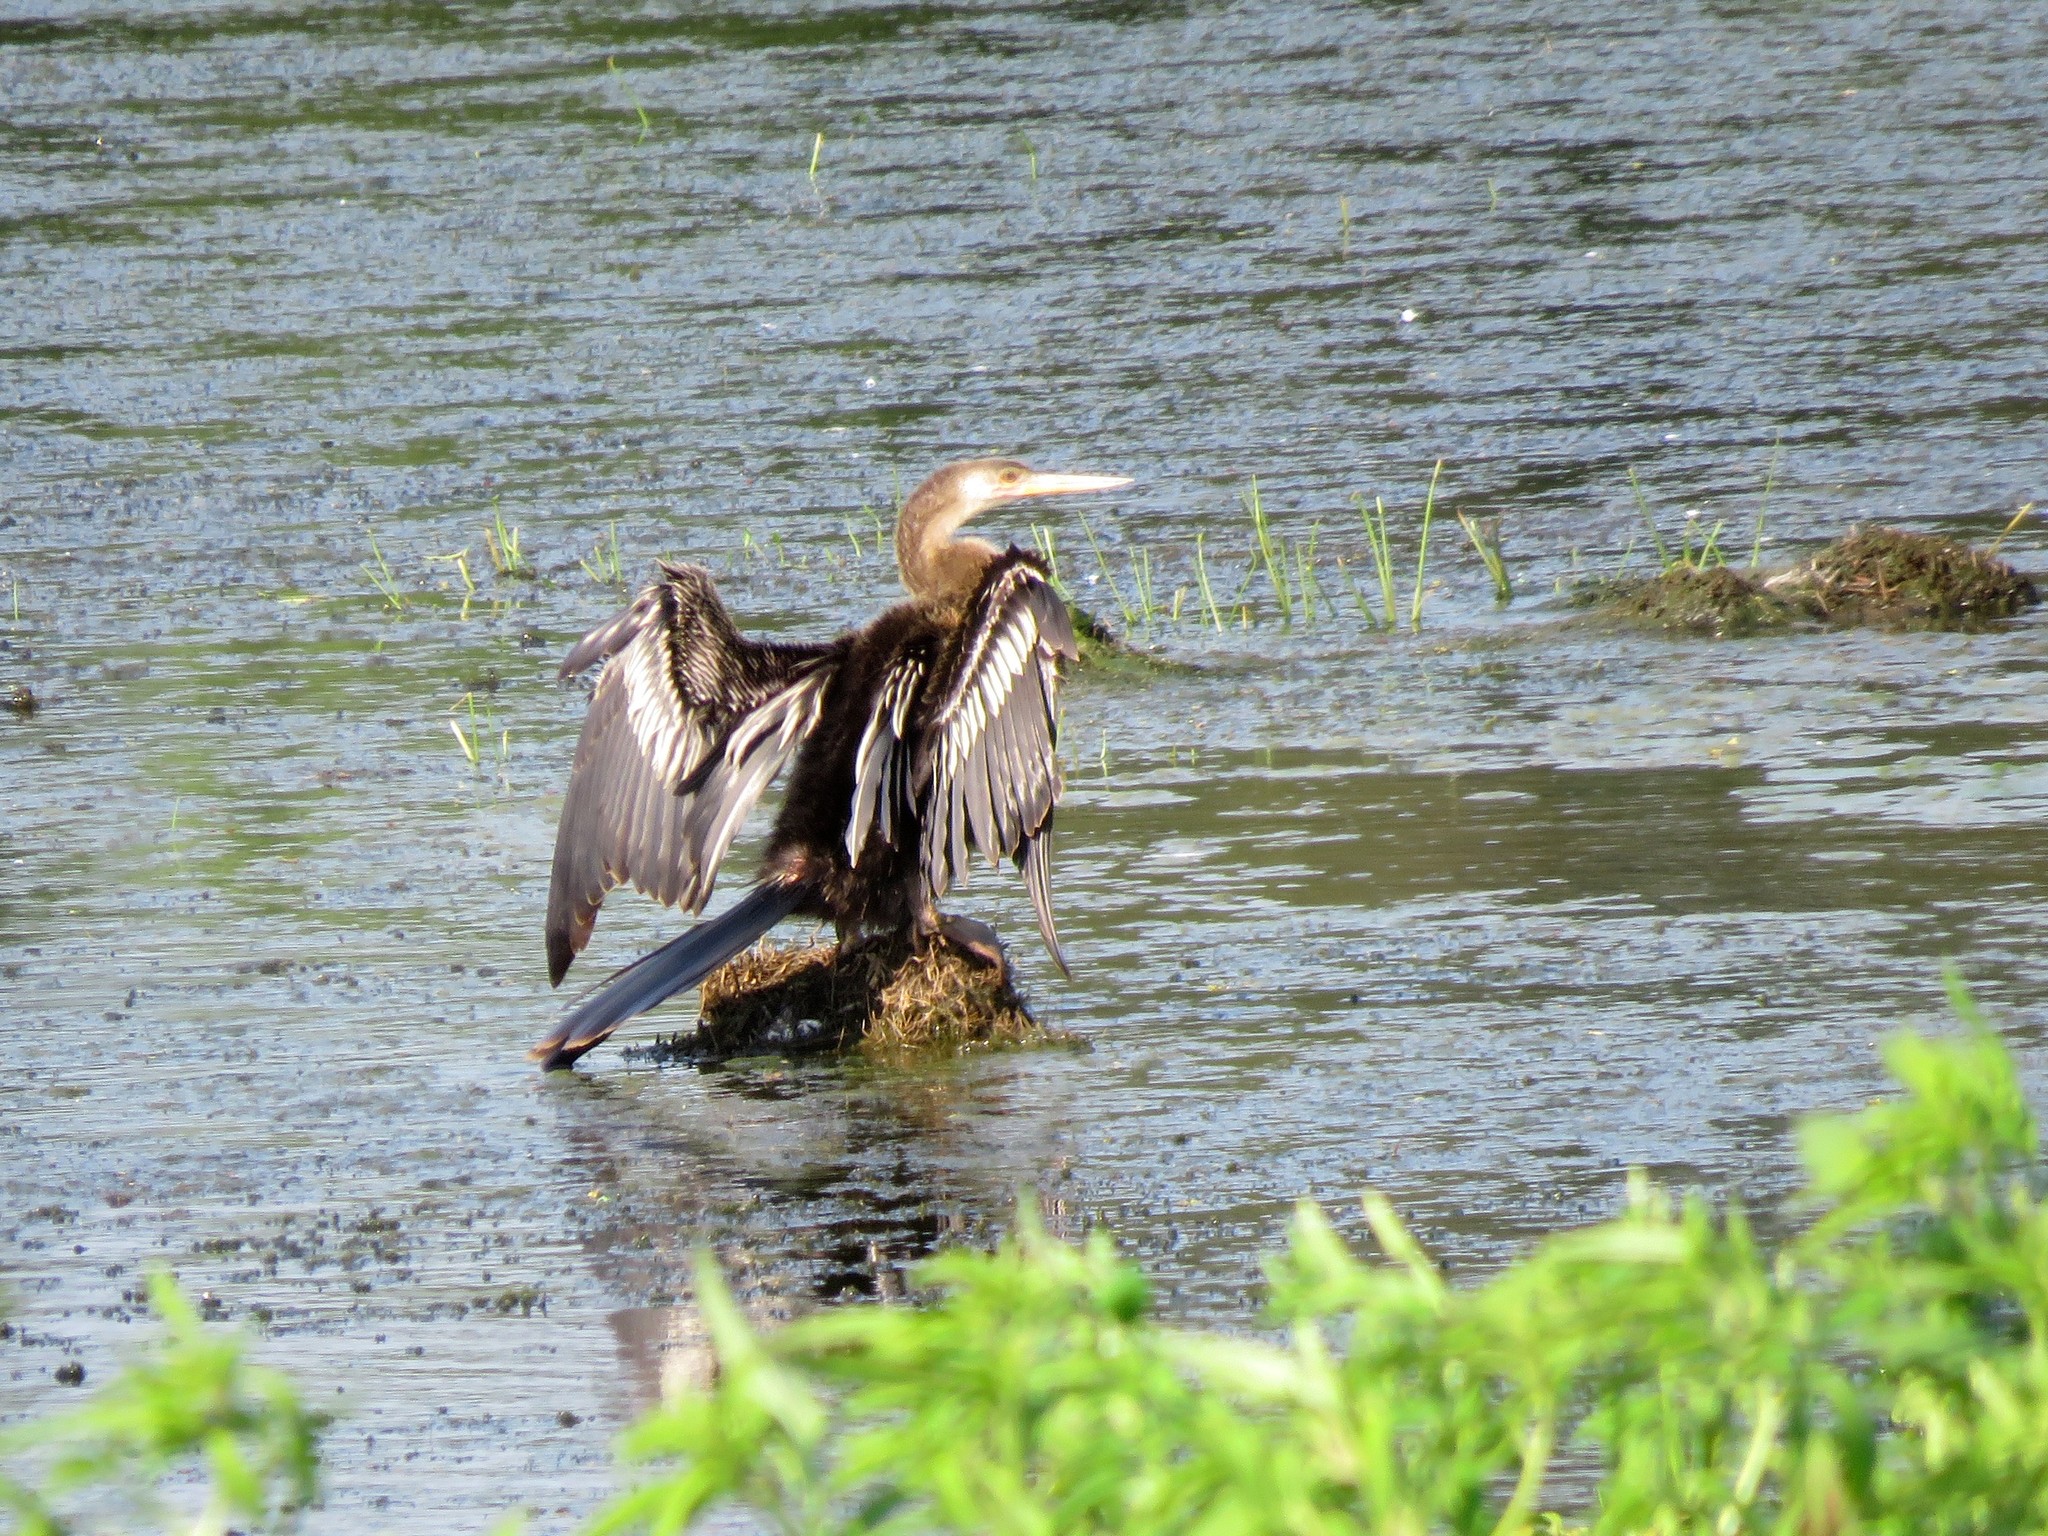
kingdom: Animalia
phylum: Chordata
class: Aves
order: Suliformes
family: Anhingidae
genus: Anhinga
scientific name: Anhinga anhinga
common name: Anhinga
